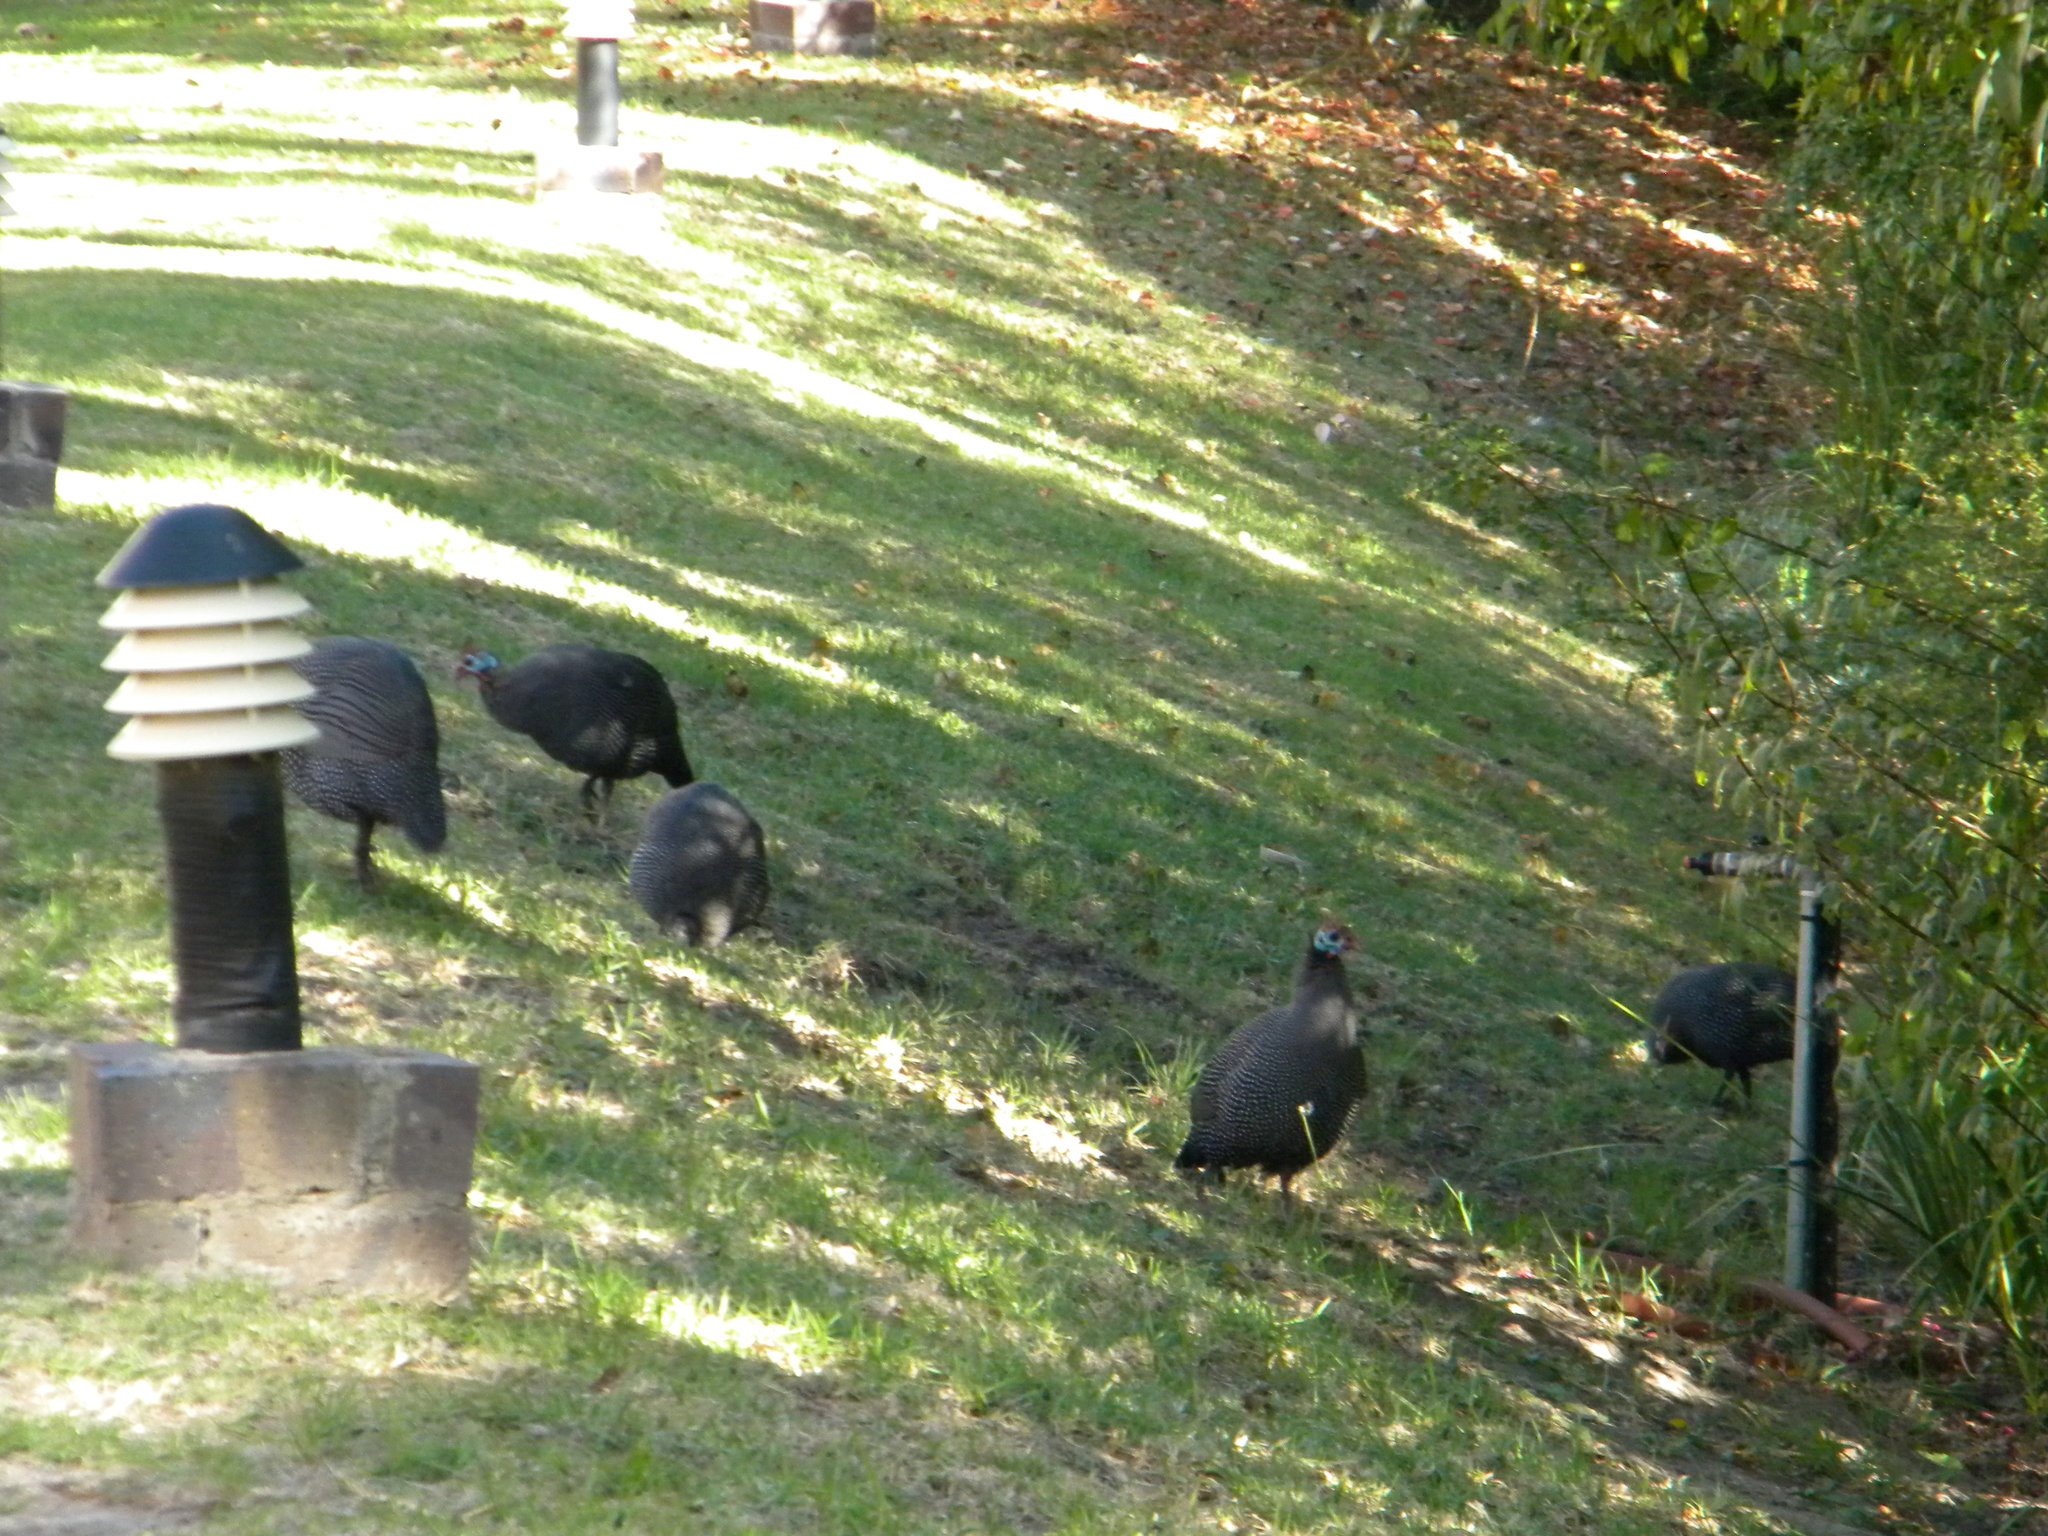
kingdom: Animalia
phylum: Chordata
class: Aves
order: Galliformes
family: Numididae
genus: Numida
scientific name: Numida meleagris
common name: Helmeted guineafowl
